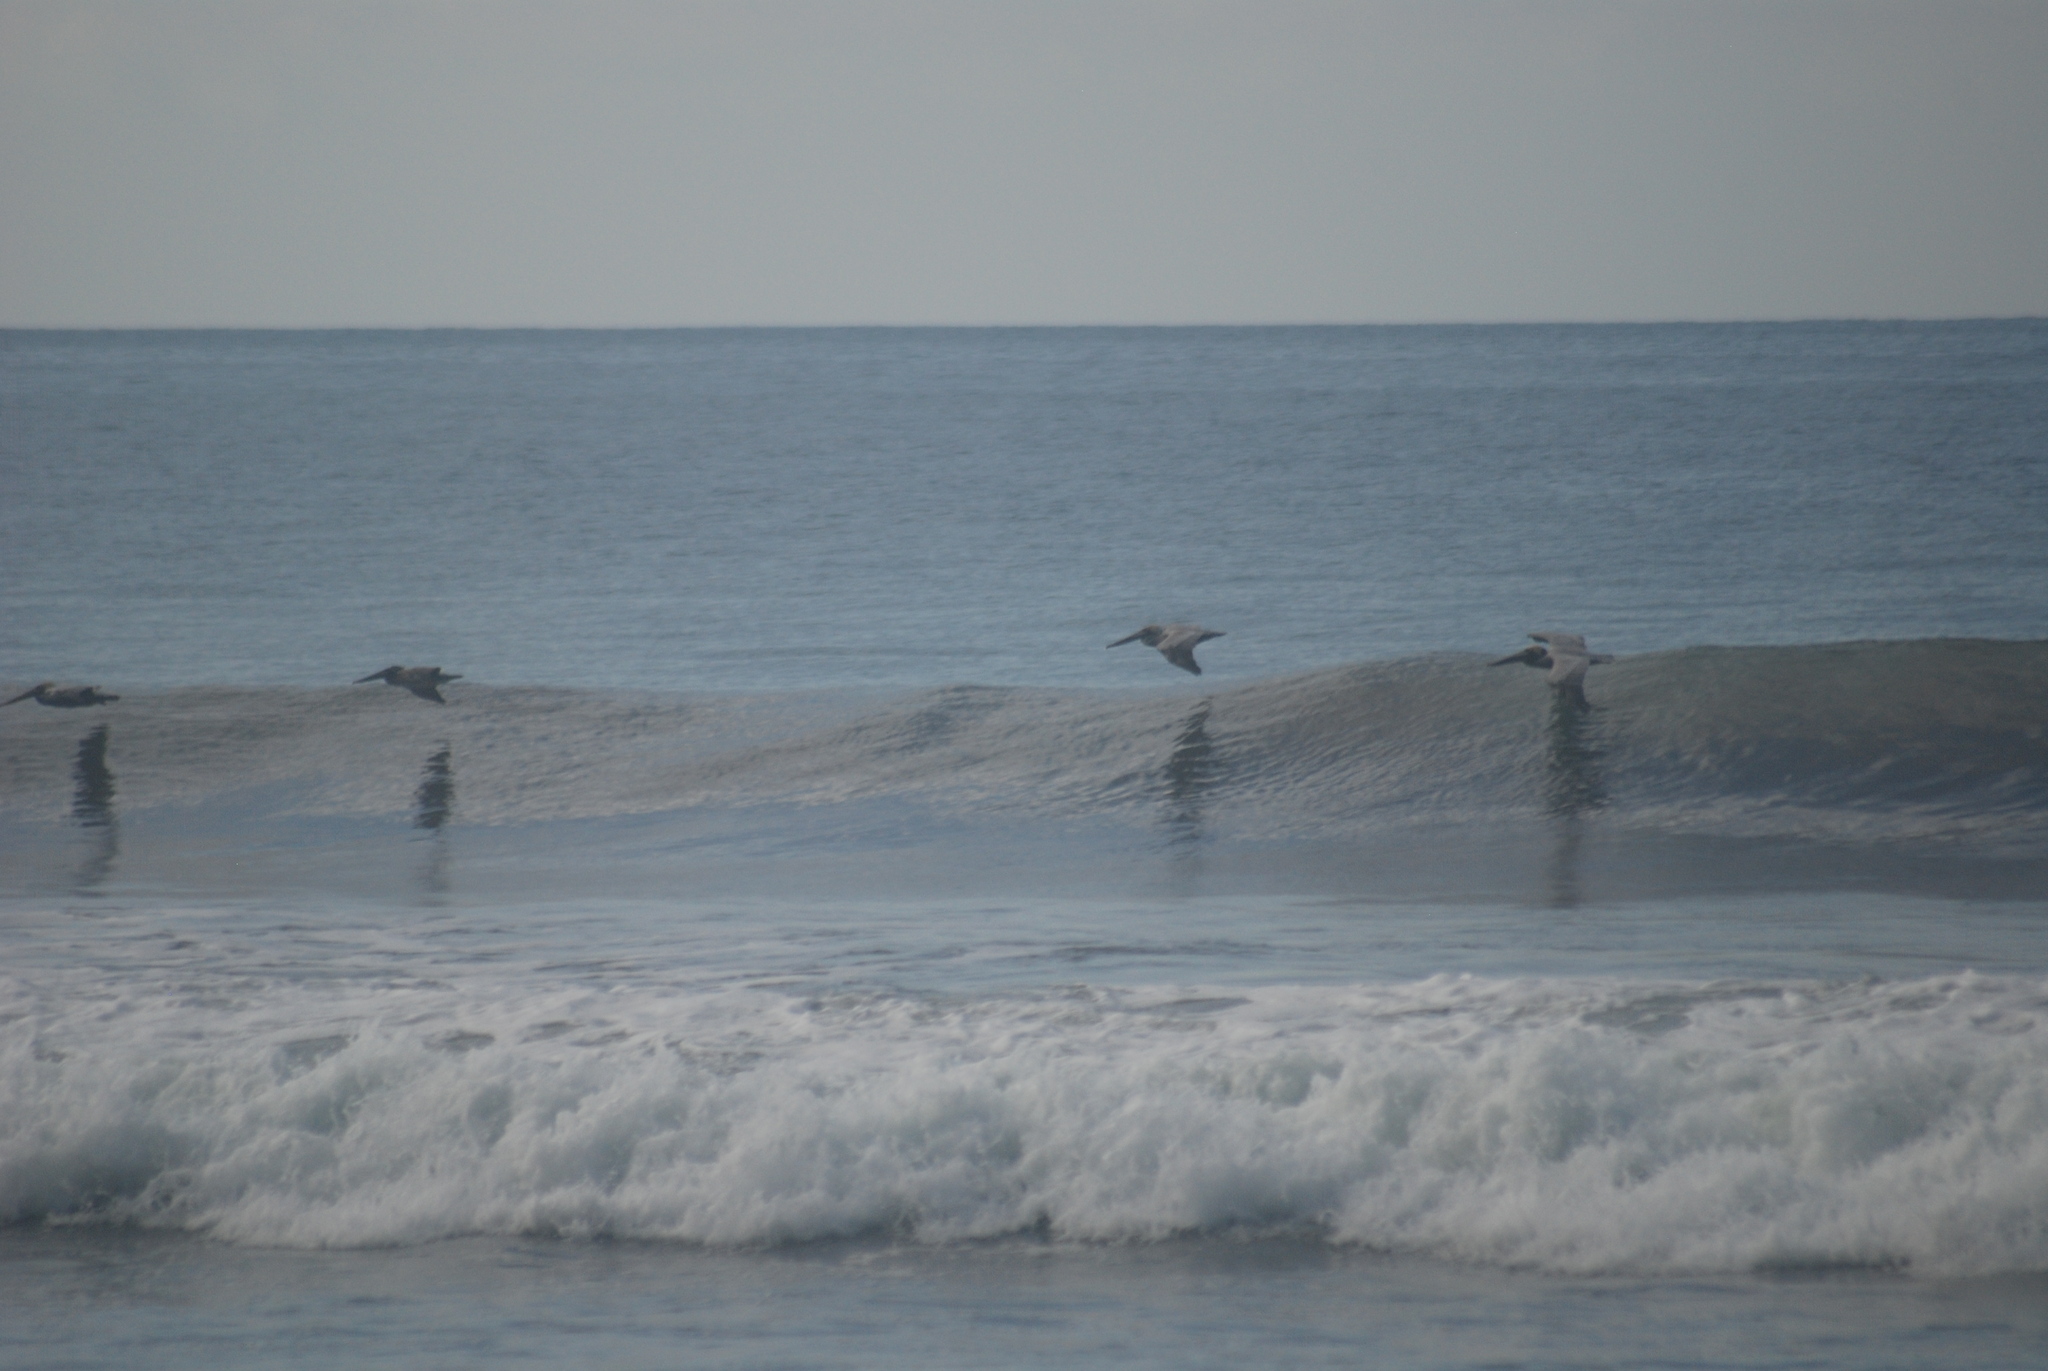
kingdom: Animalia
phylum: Chordata
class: Aves
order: Pelecaniformes
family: Pelecanidae
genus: Pelecanus
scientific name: Pelecanus occidentalis
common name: Brown pelican
